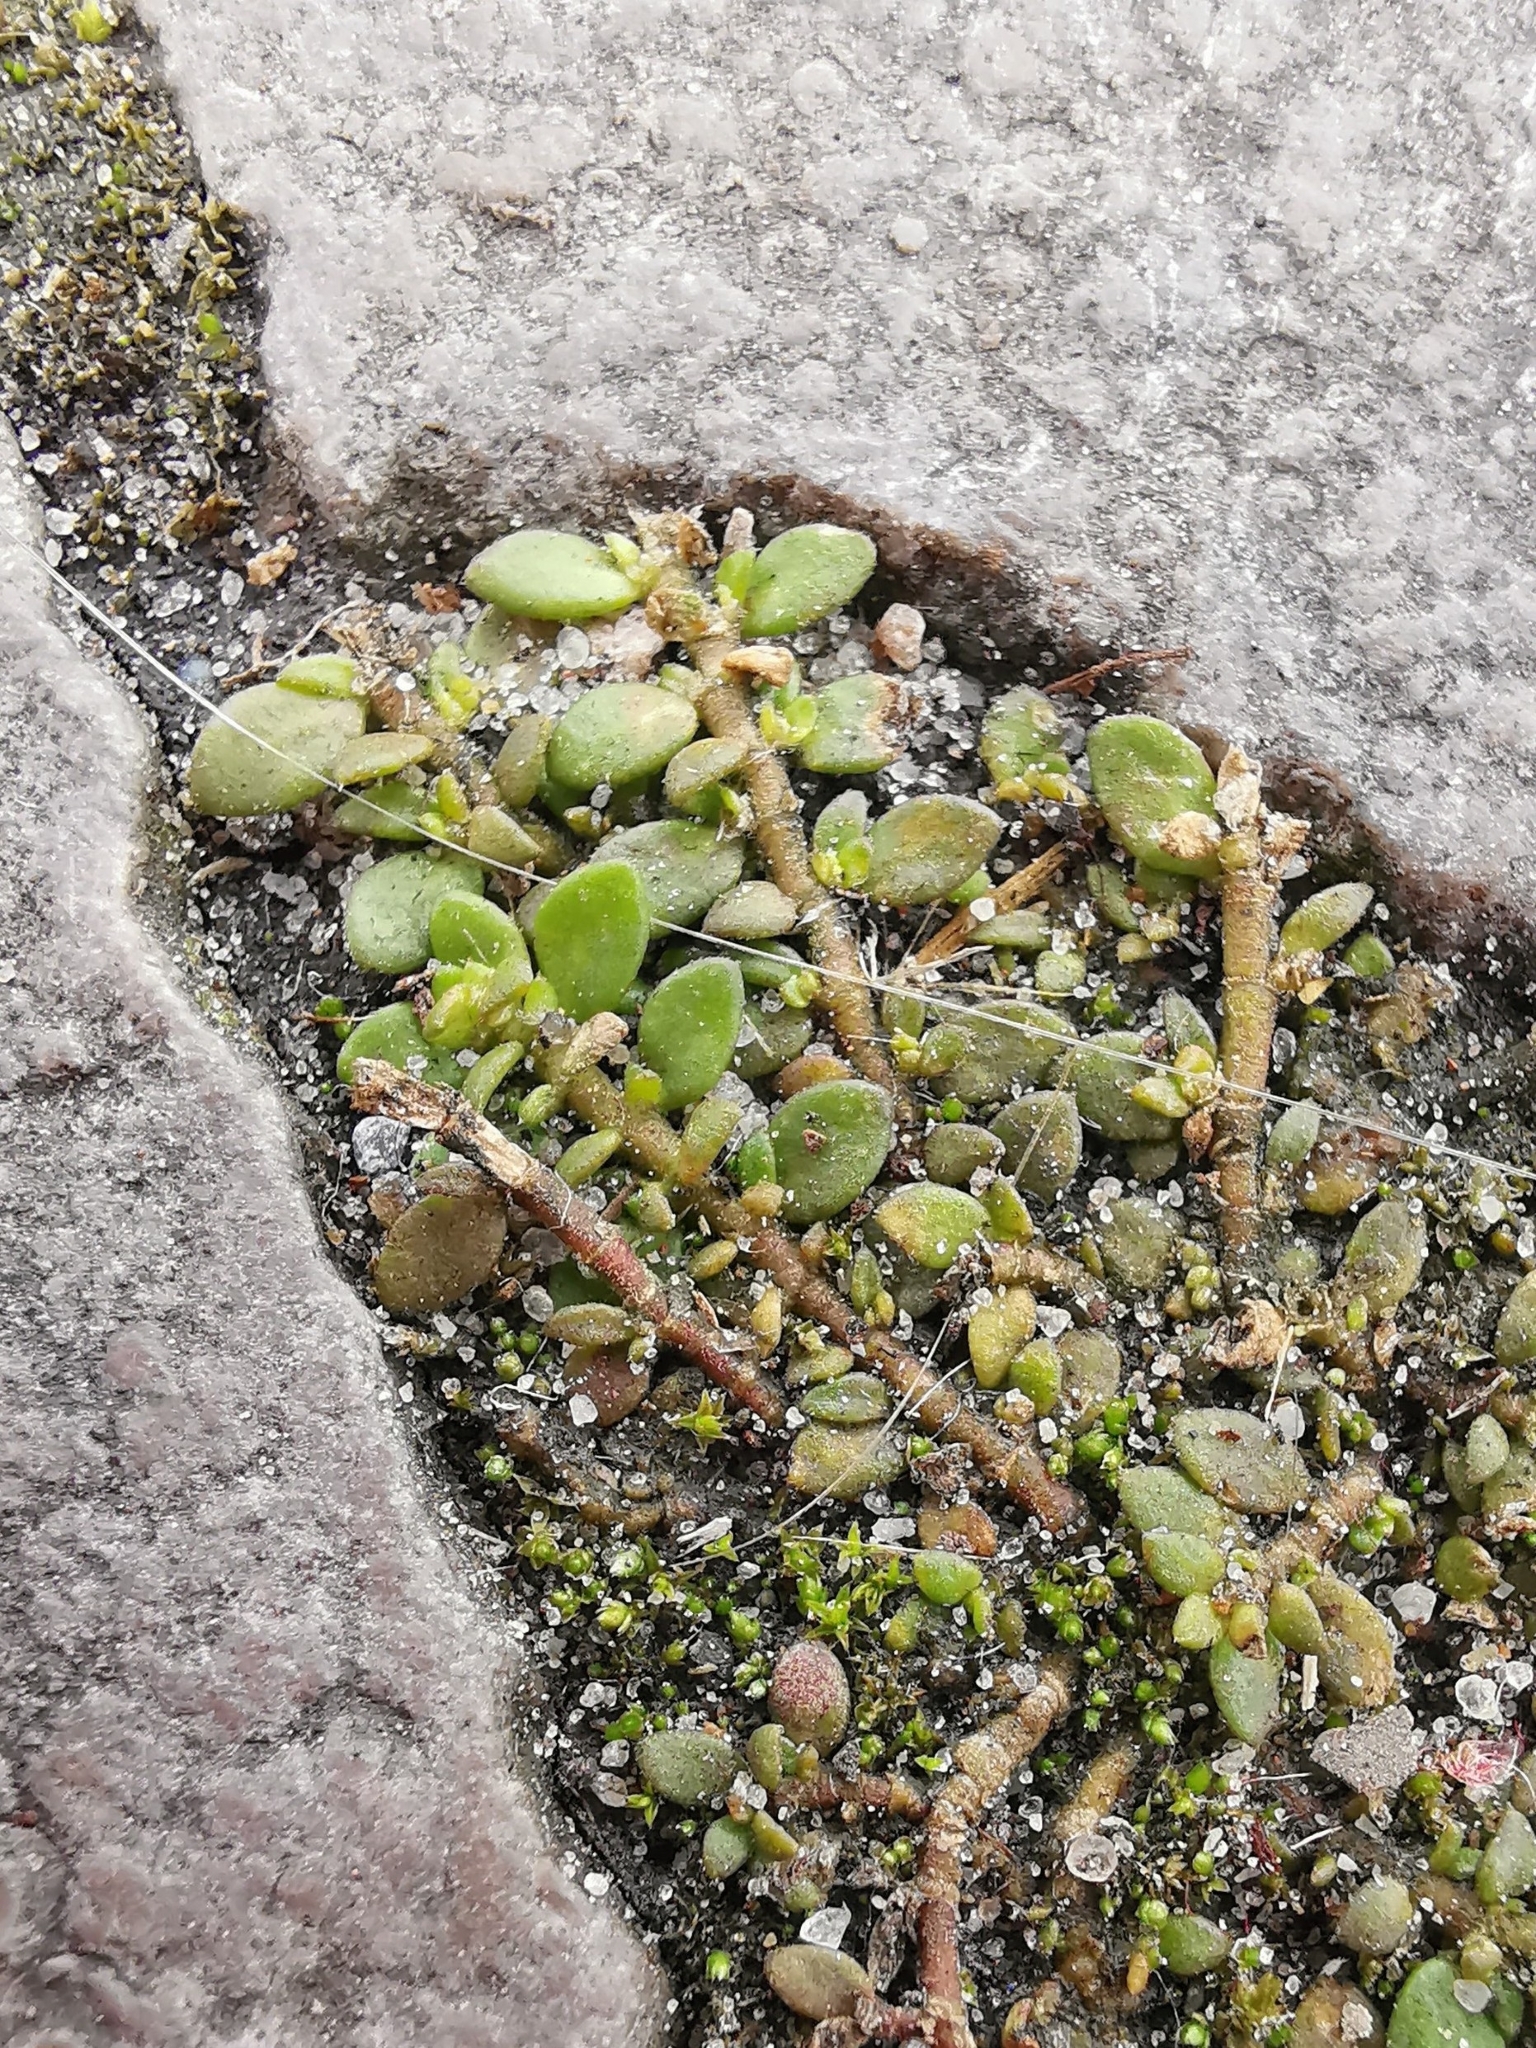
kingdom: Plantae
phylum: Tracheophyta
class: Magnoliopsida
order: Caryophyllales
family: Caryophyllaceae
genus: Herniaria
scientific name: Herniaria glabra
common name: Smooth rupturewort
